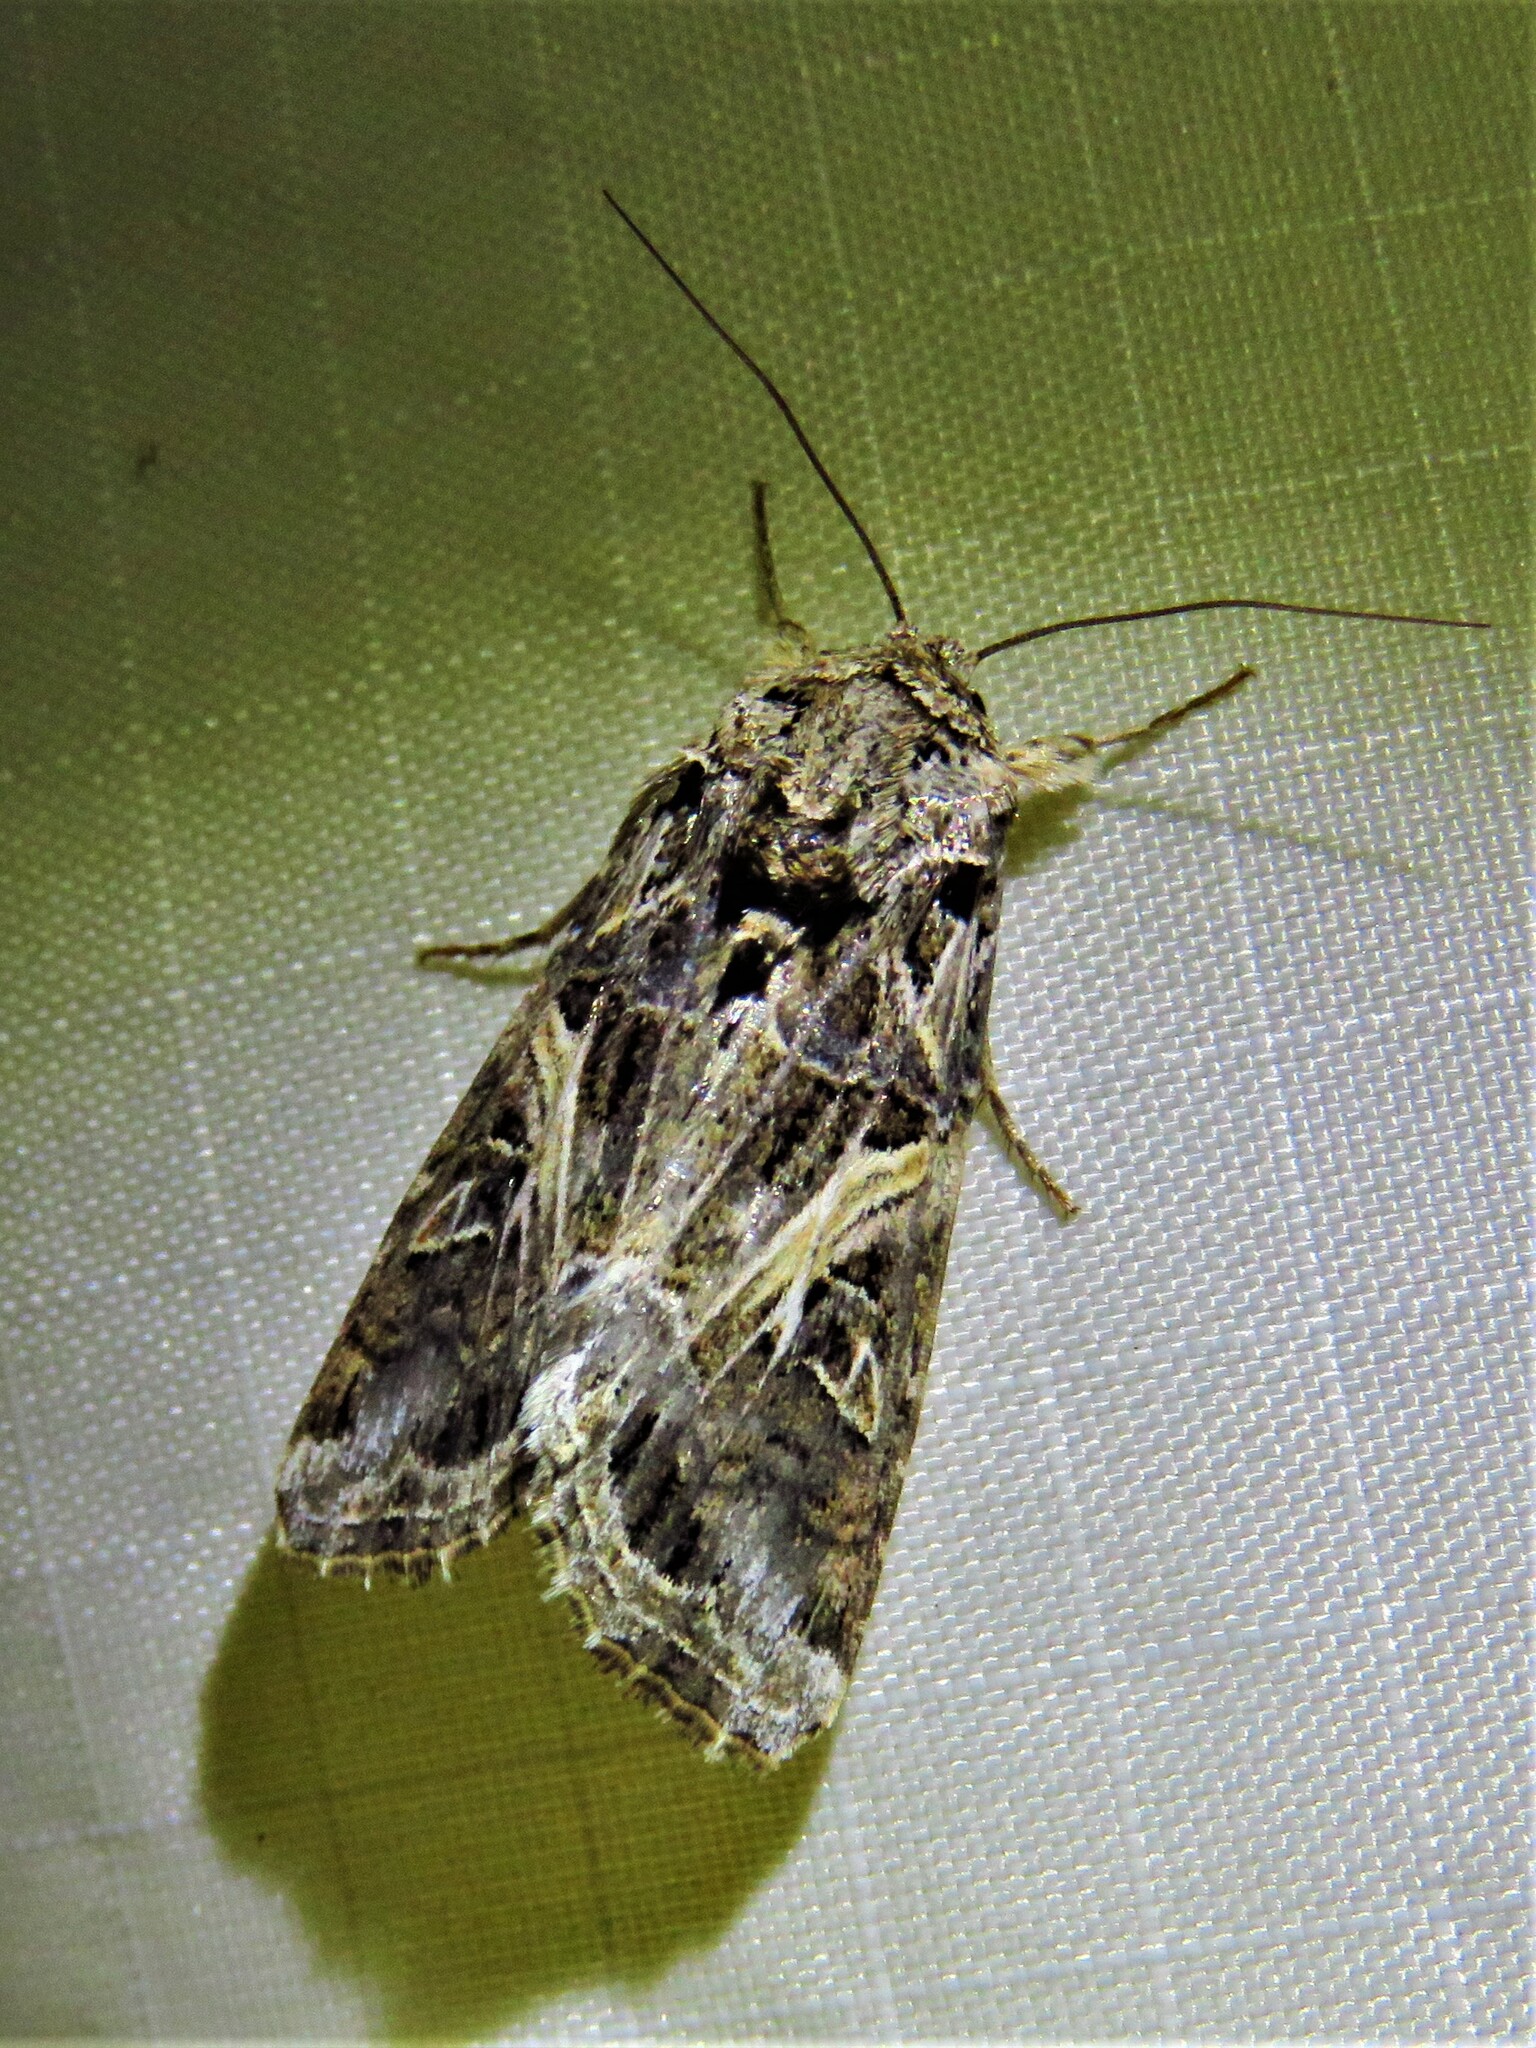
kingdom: Animalia
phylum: Arthropoda
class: Insecta
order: Lepidoptera
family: Noctuidae
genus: Spodoptera
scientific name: Spodoptera ornithogalli
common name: Yellow-striped armyworm
